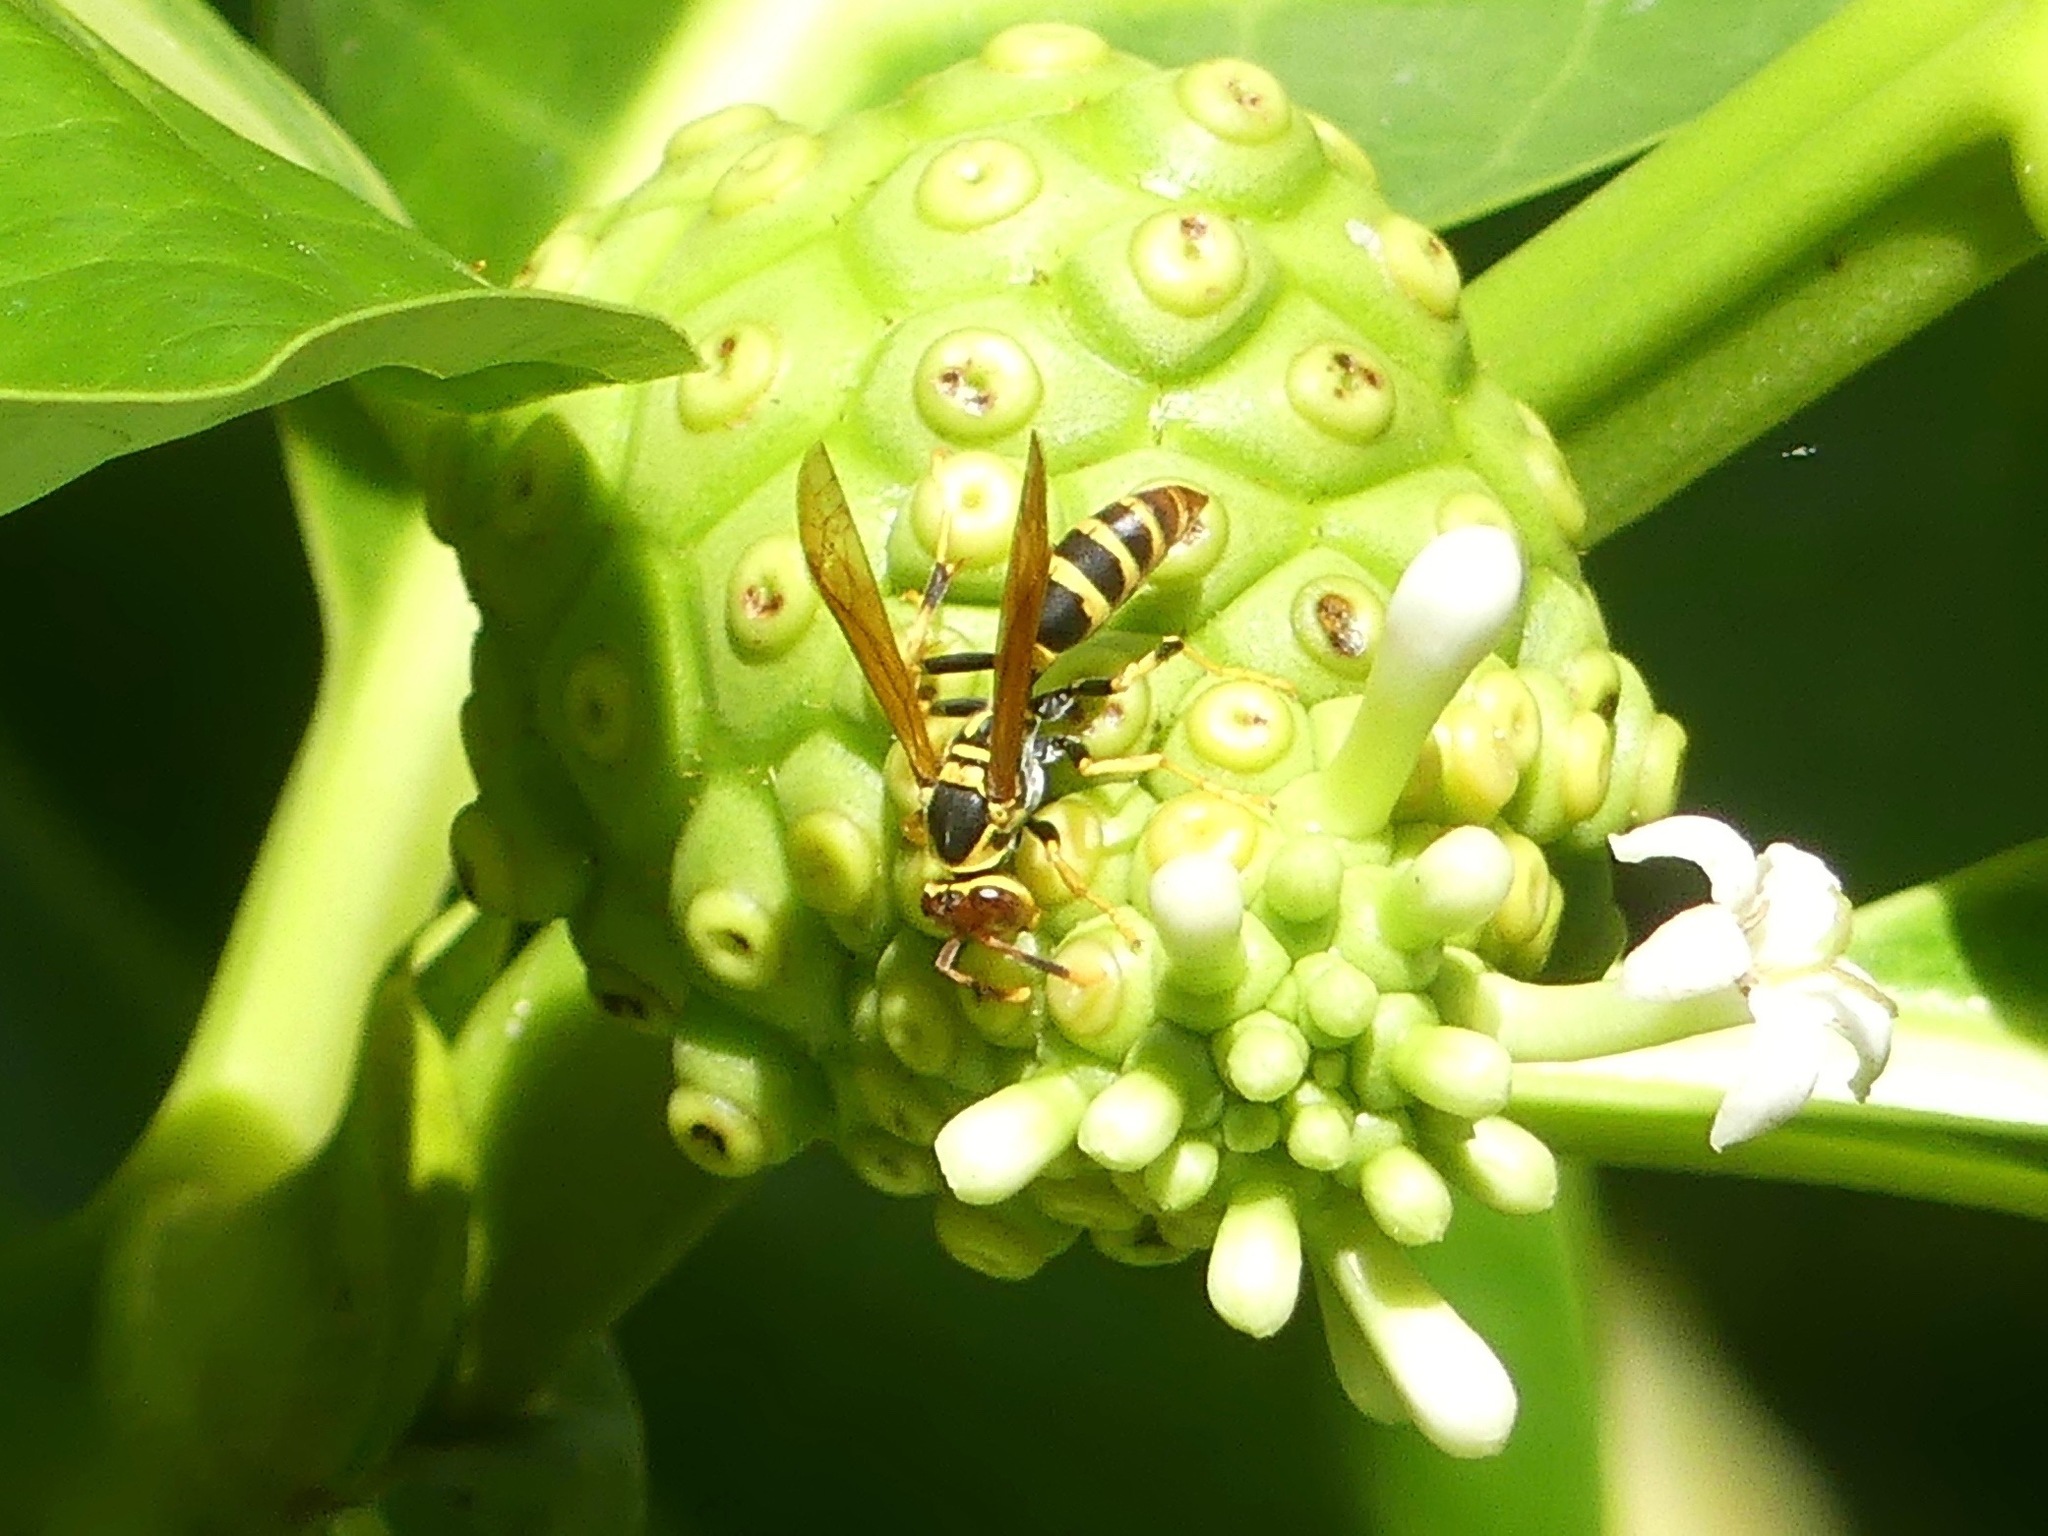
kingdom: Animalia
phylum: Arthropoda
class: Insecta
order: Hymenoptera
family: Eumenidae
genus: Polistes
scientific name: Polistes crinitus
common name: Jack spaniard
